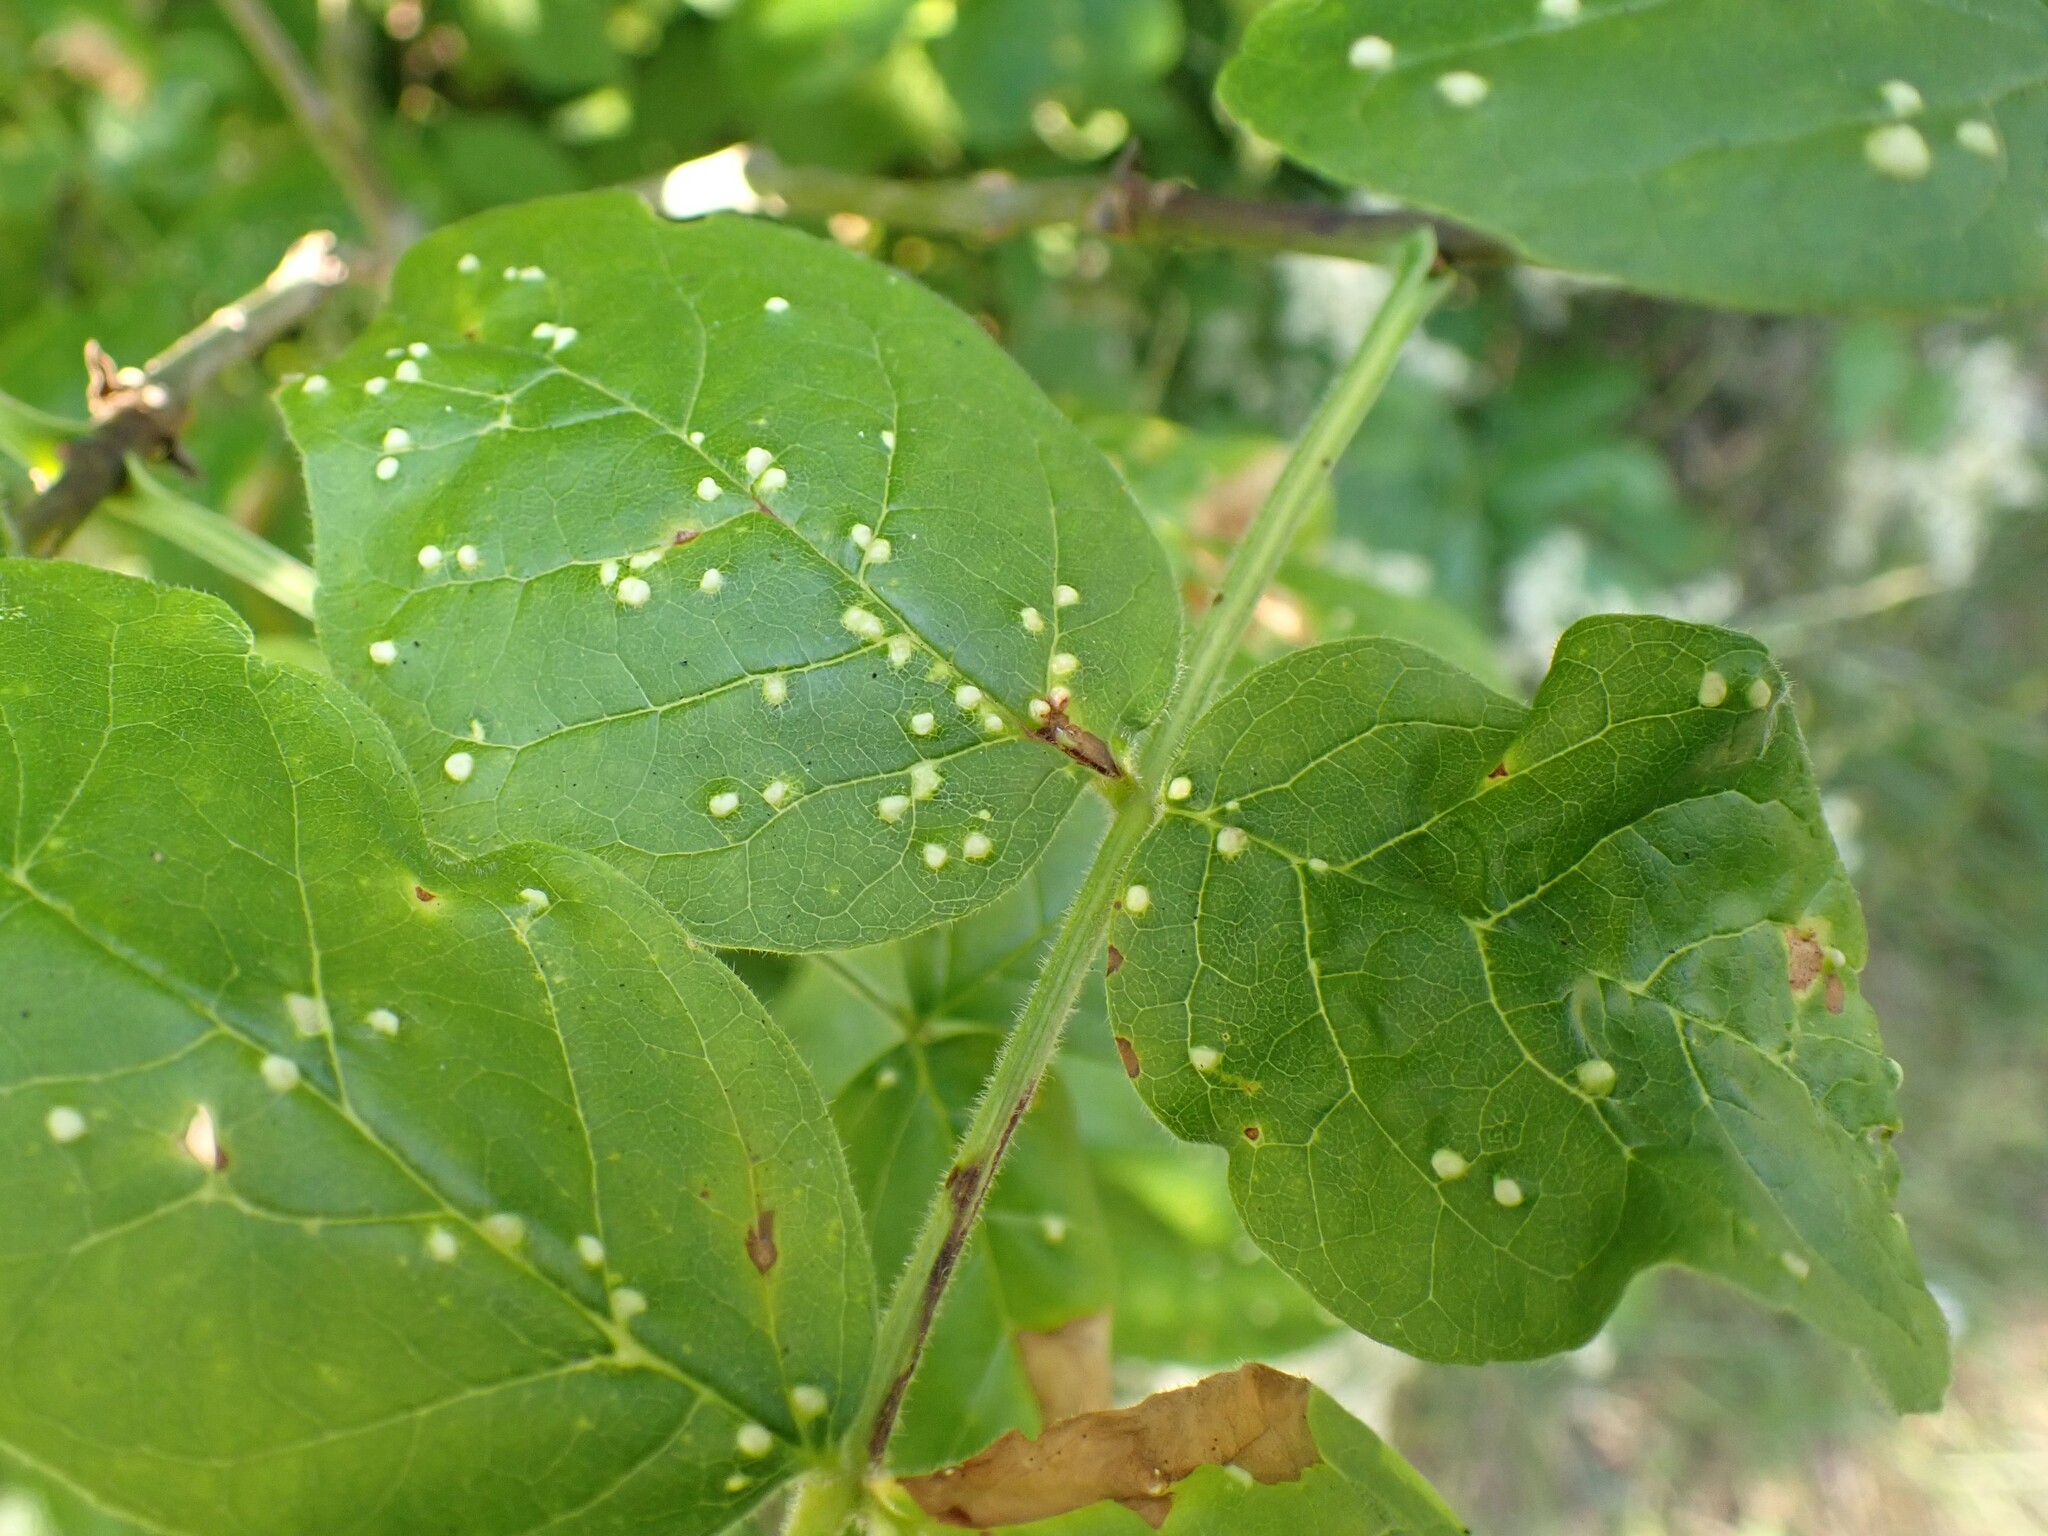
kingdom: Animalia
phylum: Arthropoda
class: Arachnida
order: Trombidiformes
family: Eriophyidae
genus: Aceria
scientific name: Aceria fraxinicola
